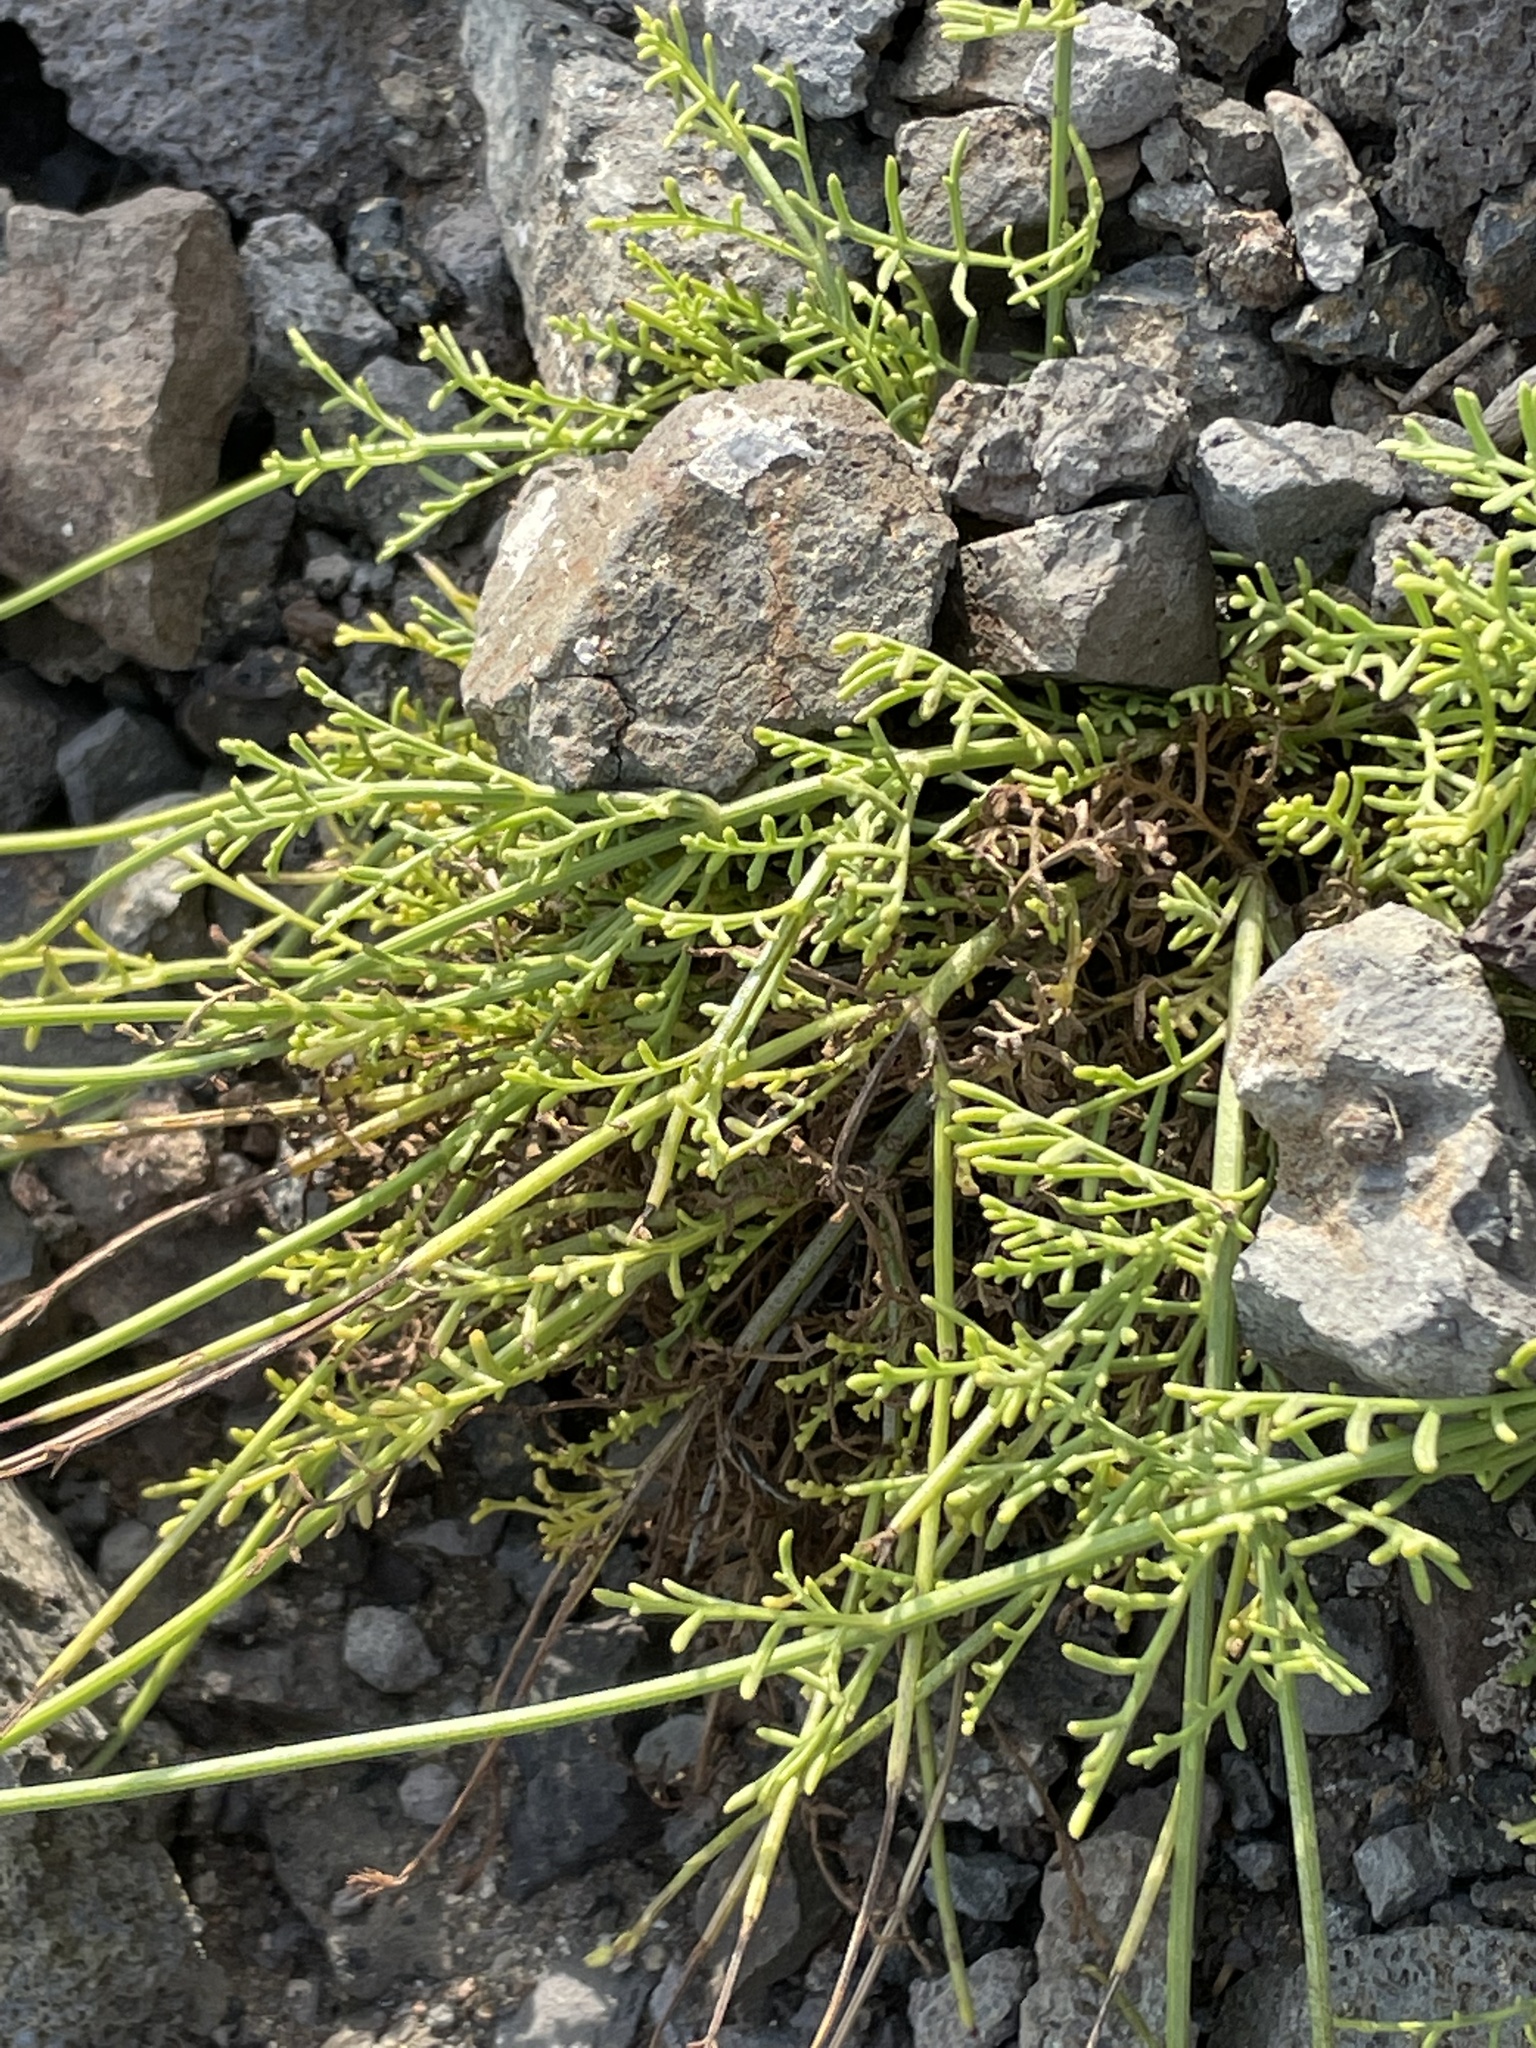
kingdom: Plantae
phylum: Tracheophyta
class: Magnoliopsida
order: Lamiales
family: Lamiaceae
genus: Lavandula
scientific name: Lavandula coronopifolia
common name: Stagshorn lavender
